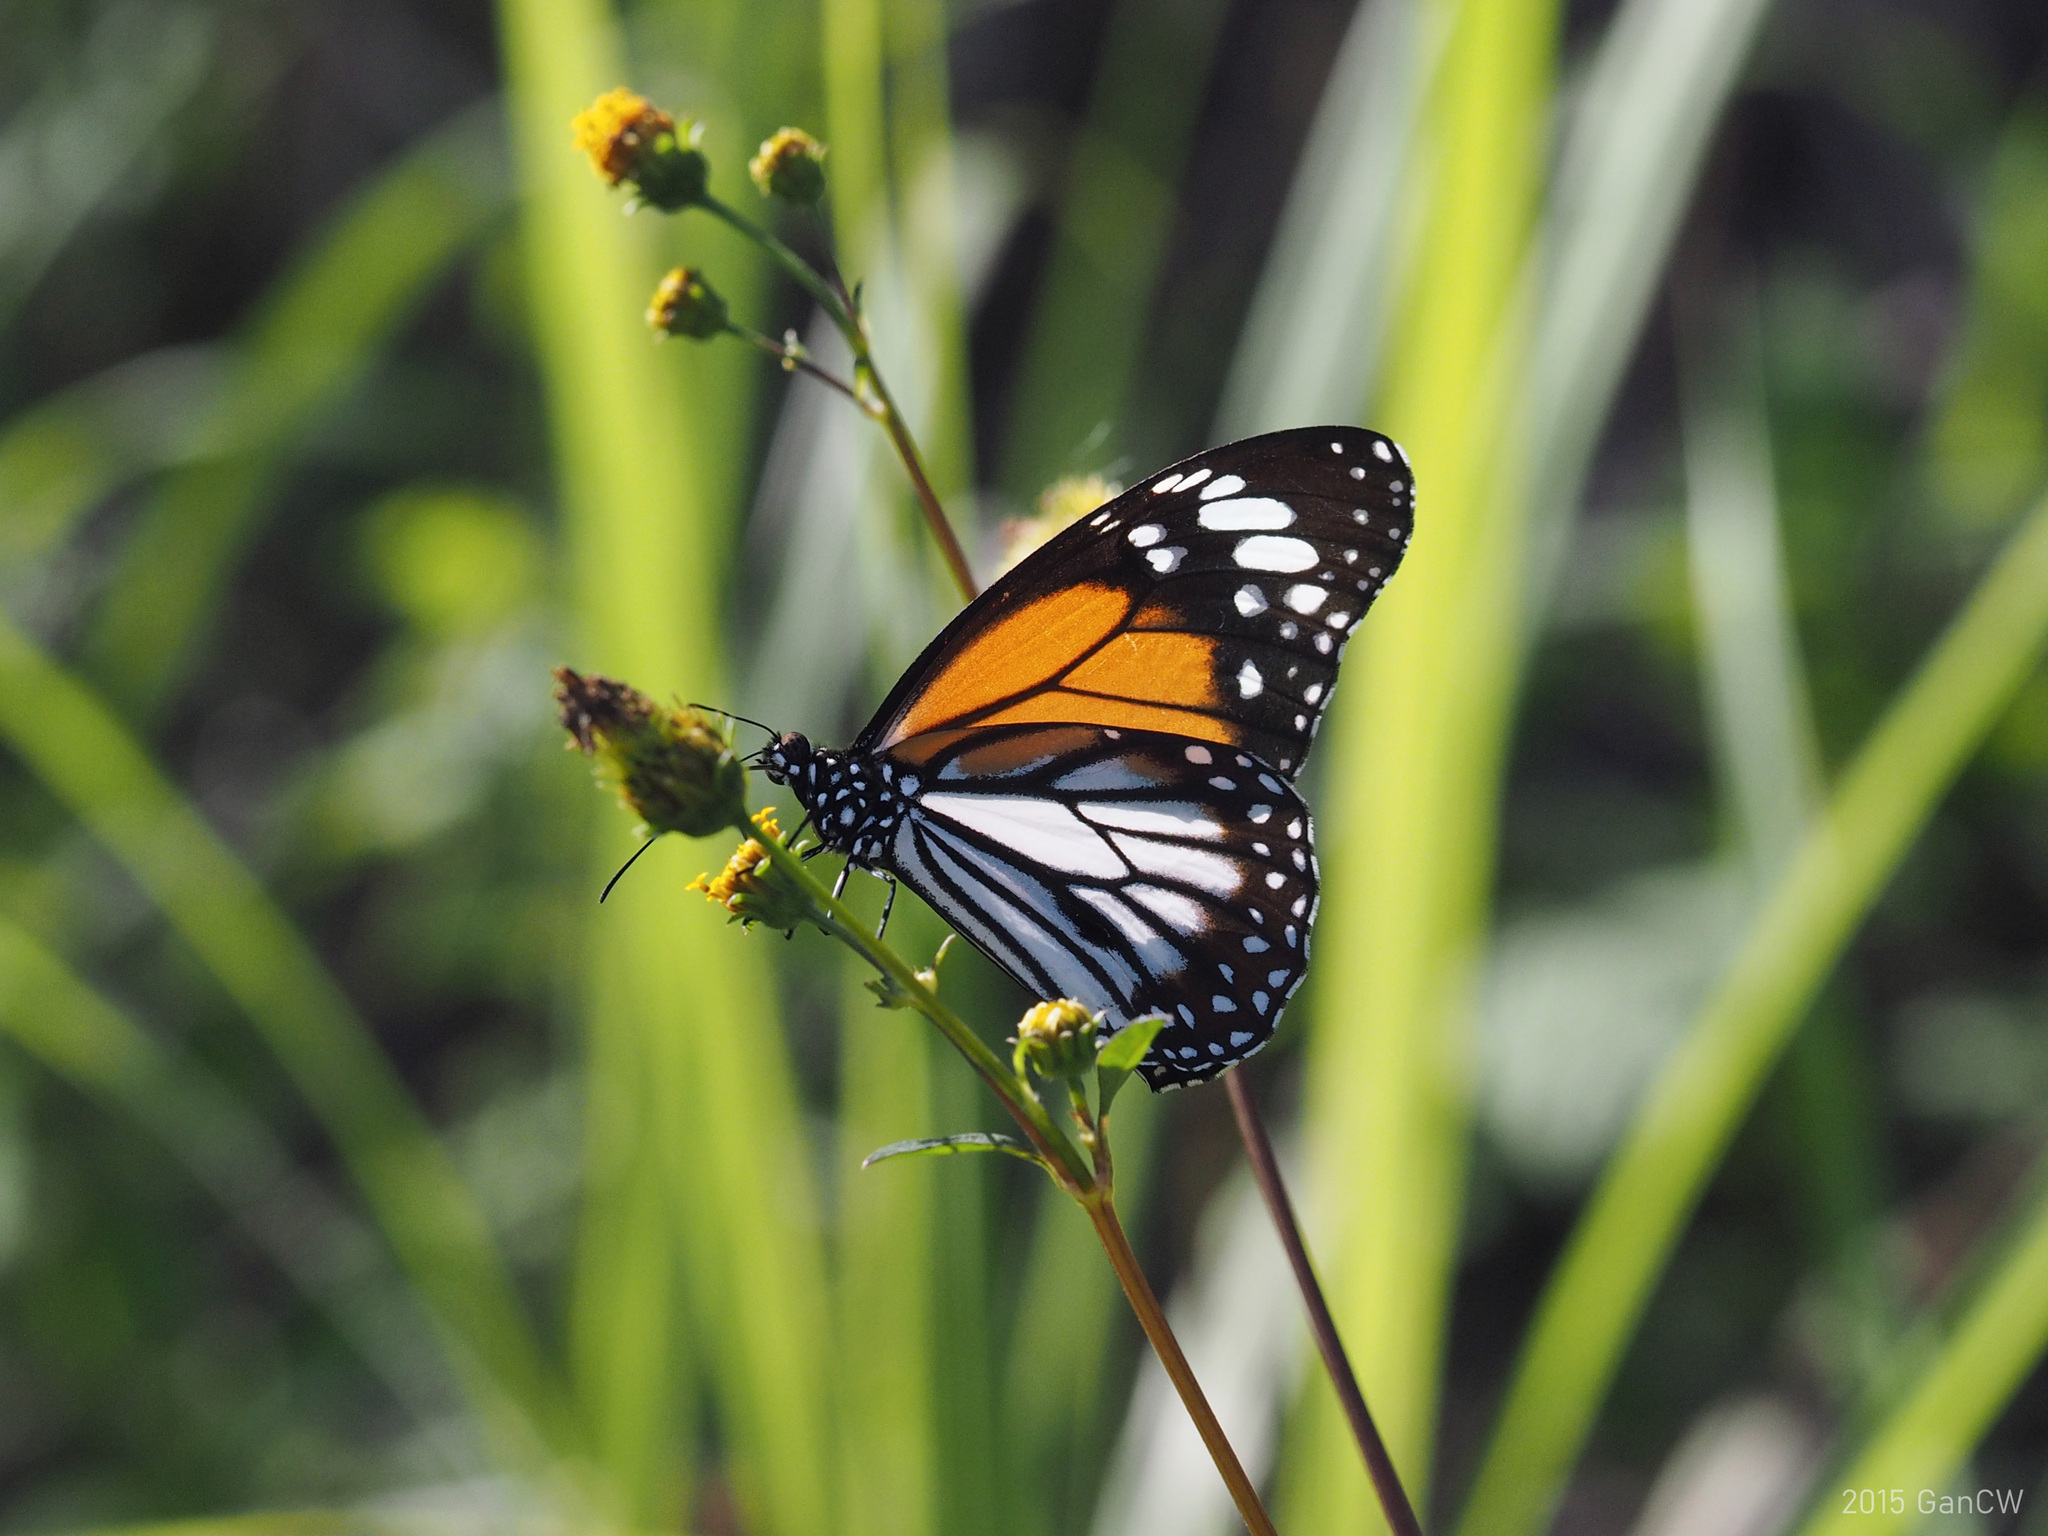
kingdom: Animalia
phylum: Arthropoda
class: Insecta
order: Lepidoptera
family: Nymphalidae
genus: Danaus
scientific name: Danaus melanippus
